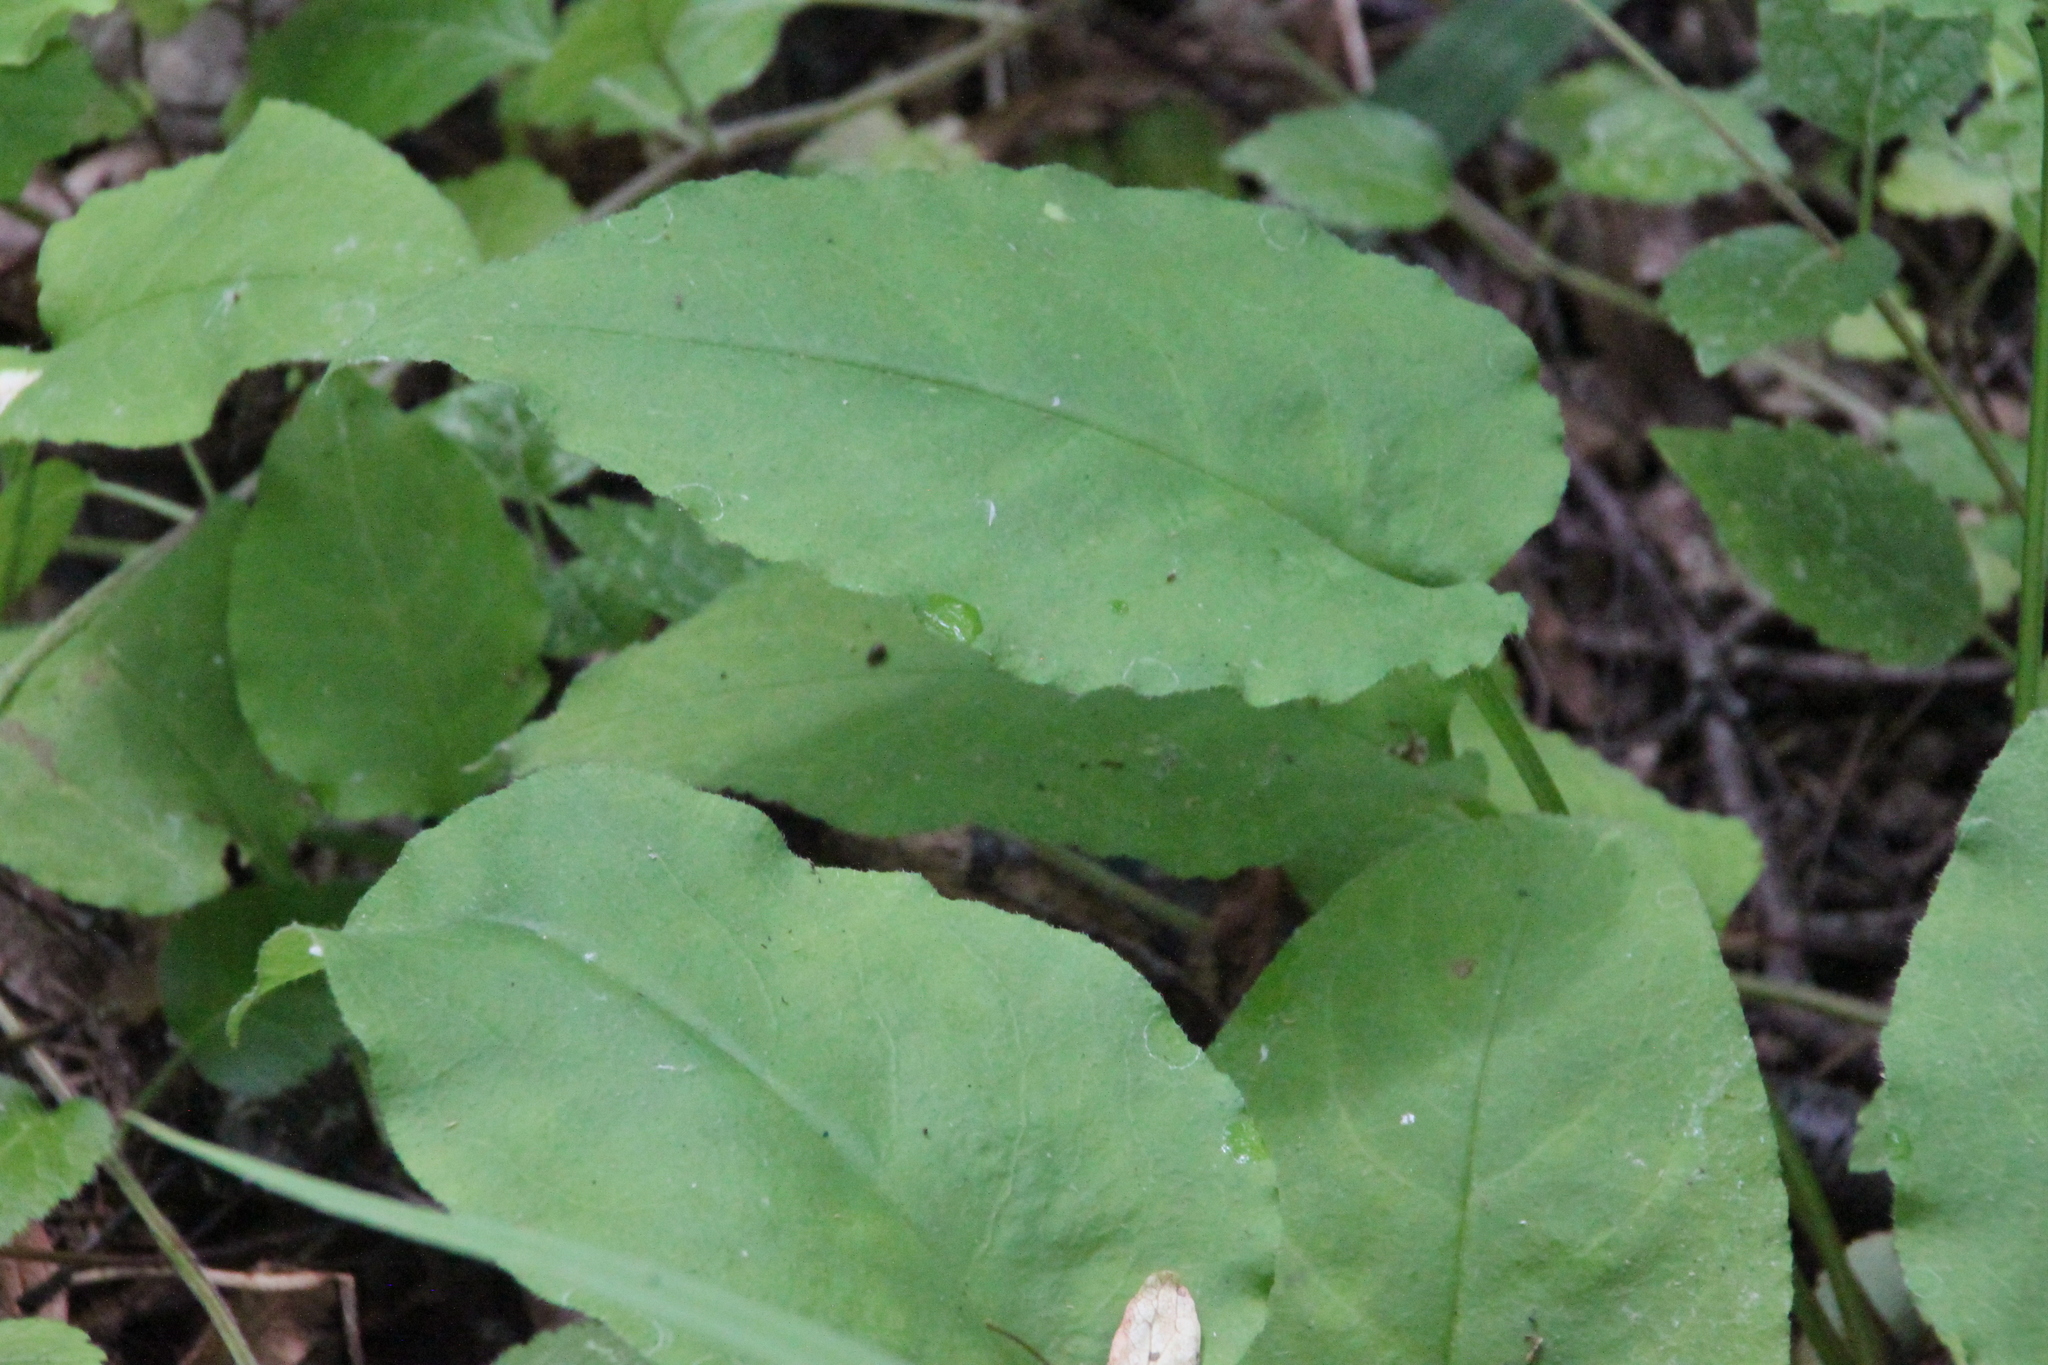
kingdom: Plantae
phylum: Tracheophyta
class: Magnoliopsida
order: Boraginales
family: Boraginaceae
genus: Pulmonaria
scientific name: Pulmonaria obscura
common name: Suffolk lungwort
